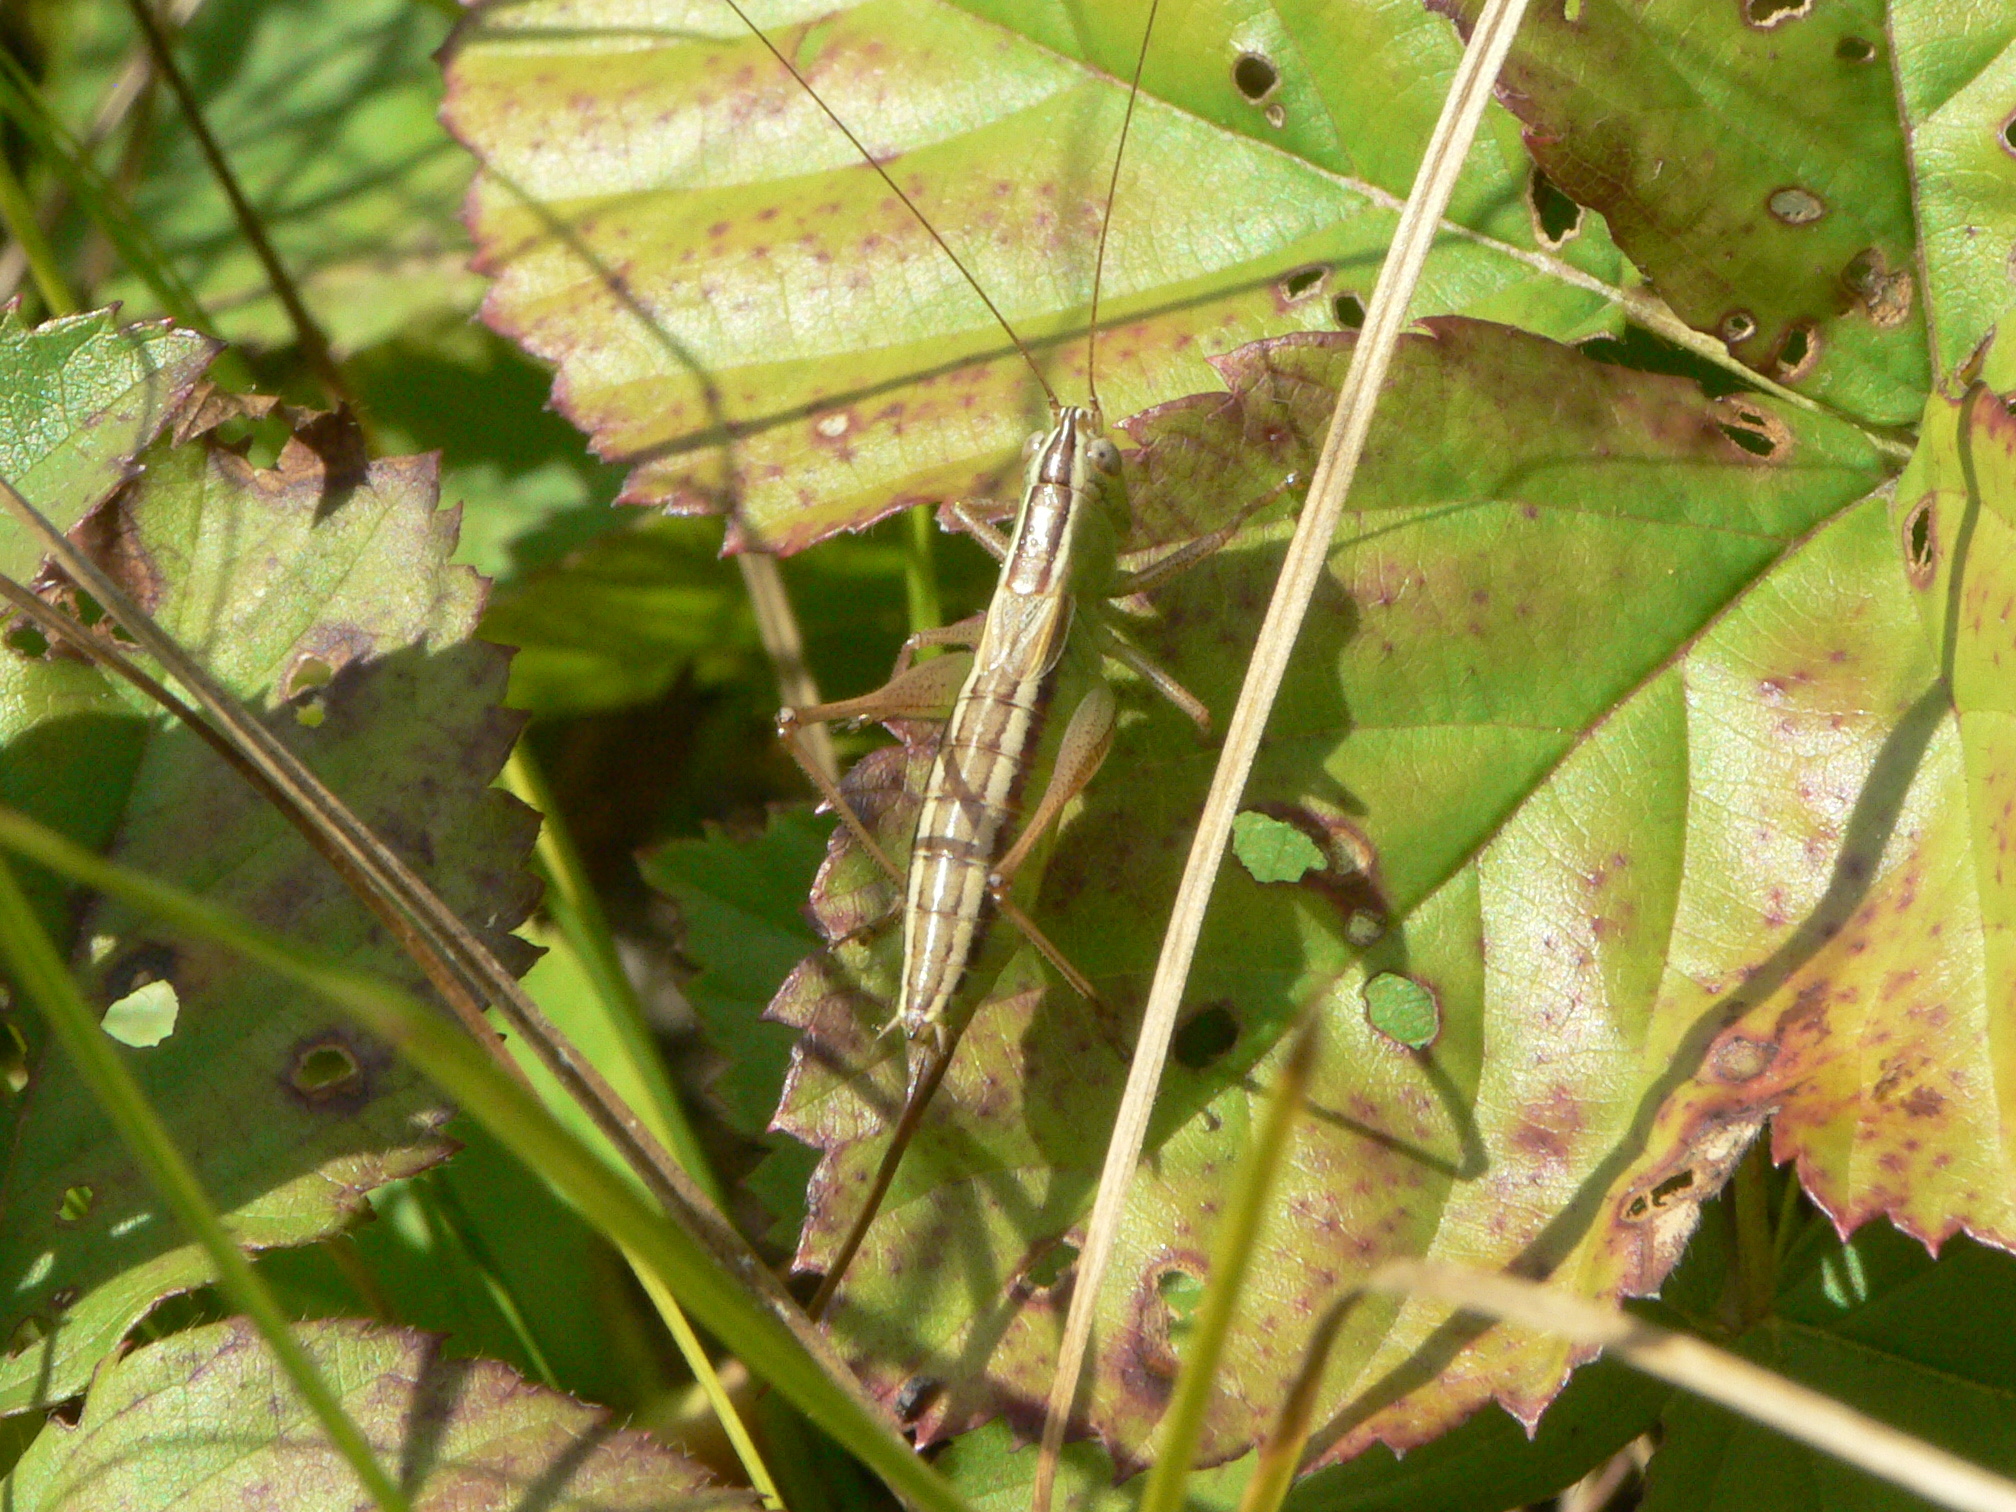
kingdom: Animalia
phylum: Arthropoda
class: Insecta
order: Orthoptera
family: Tettigoniidae
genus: Conocephalus
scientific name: Conocephalus saltans
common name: Prairie meadow katydid
